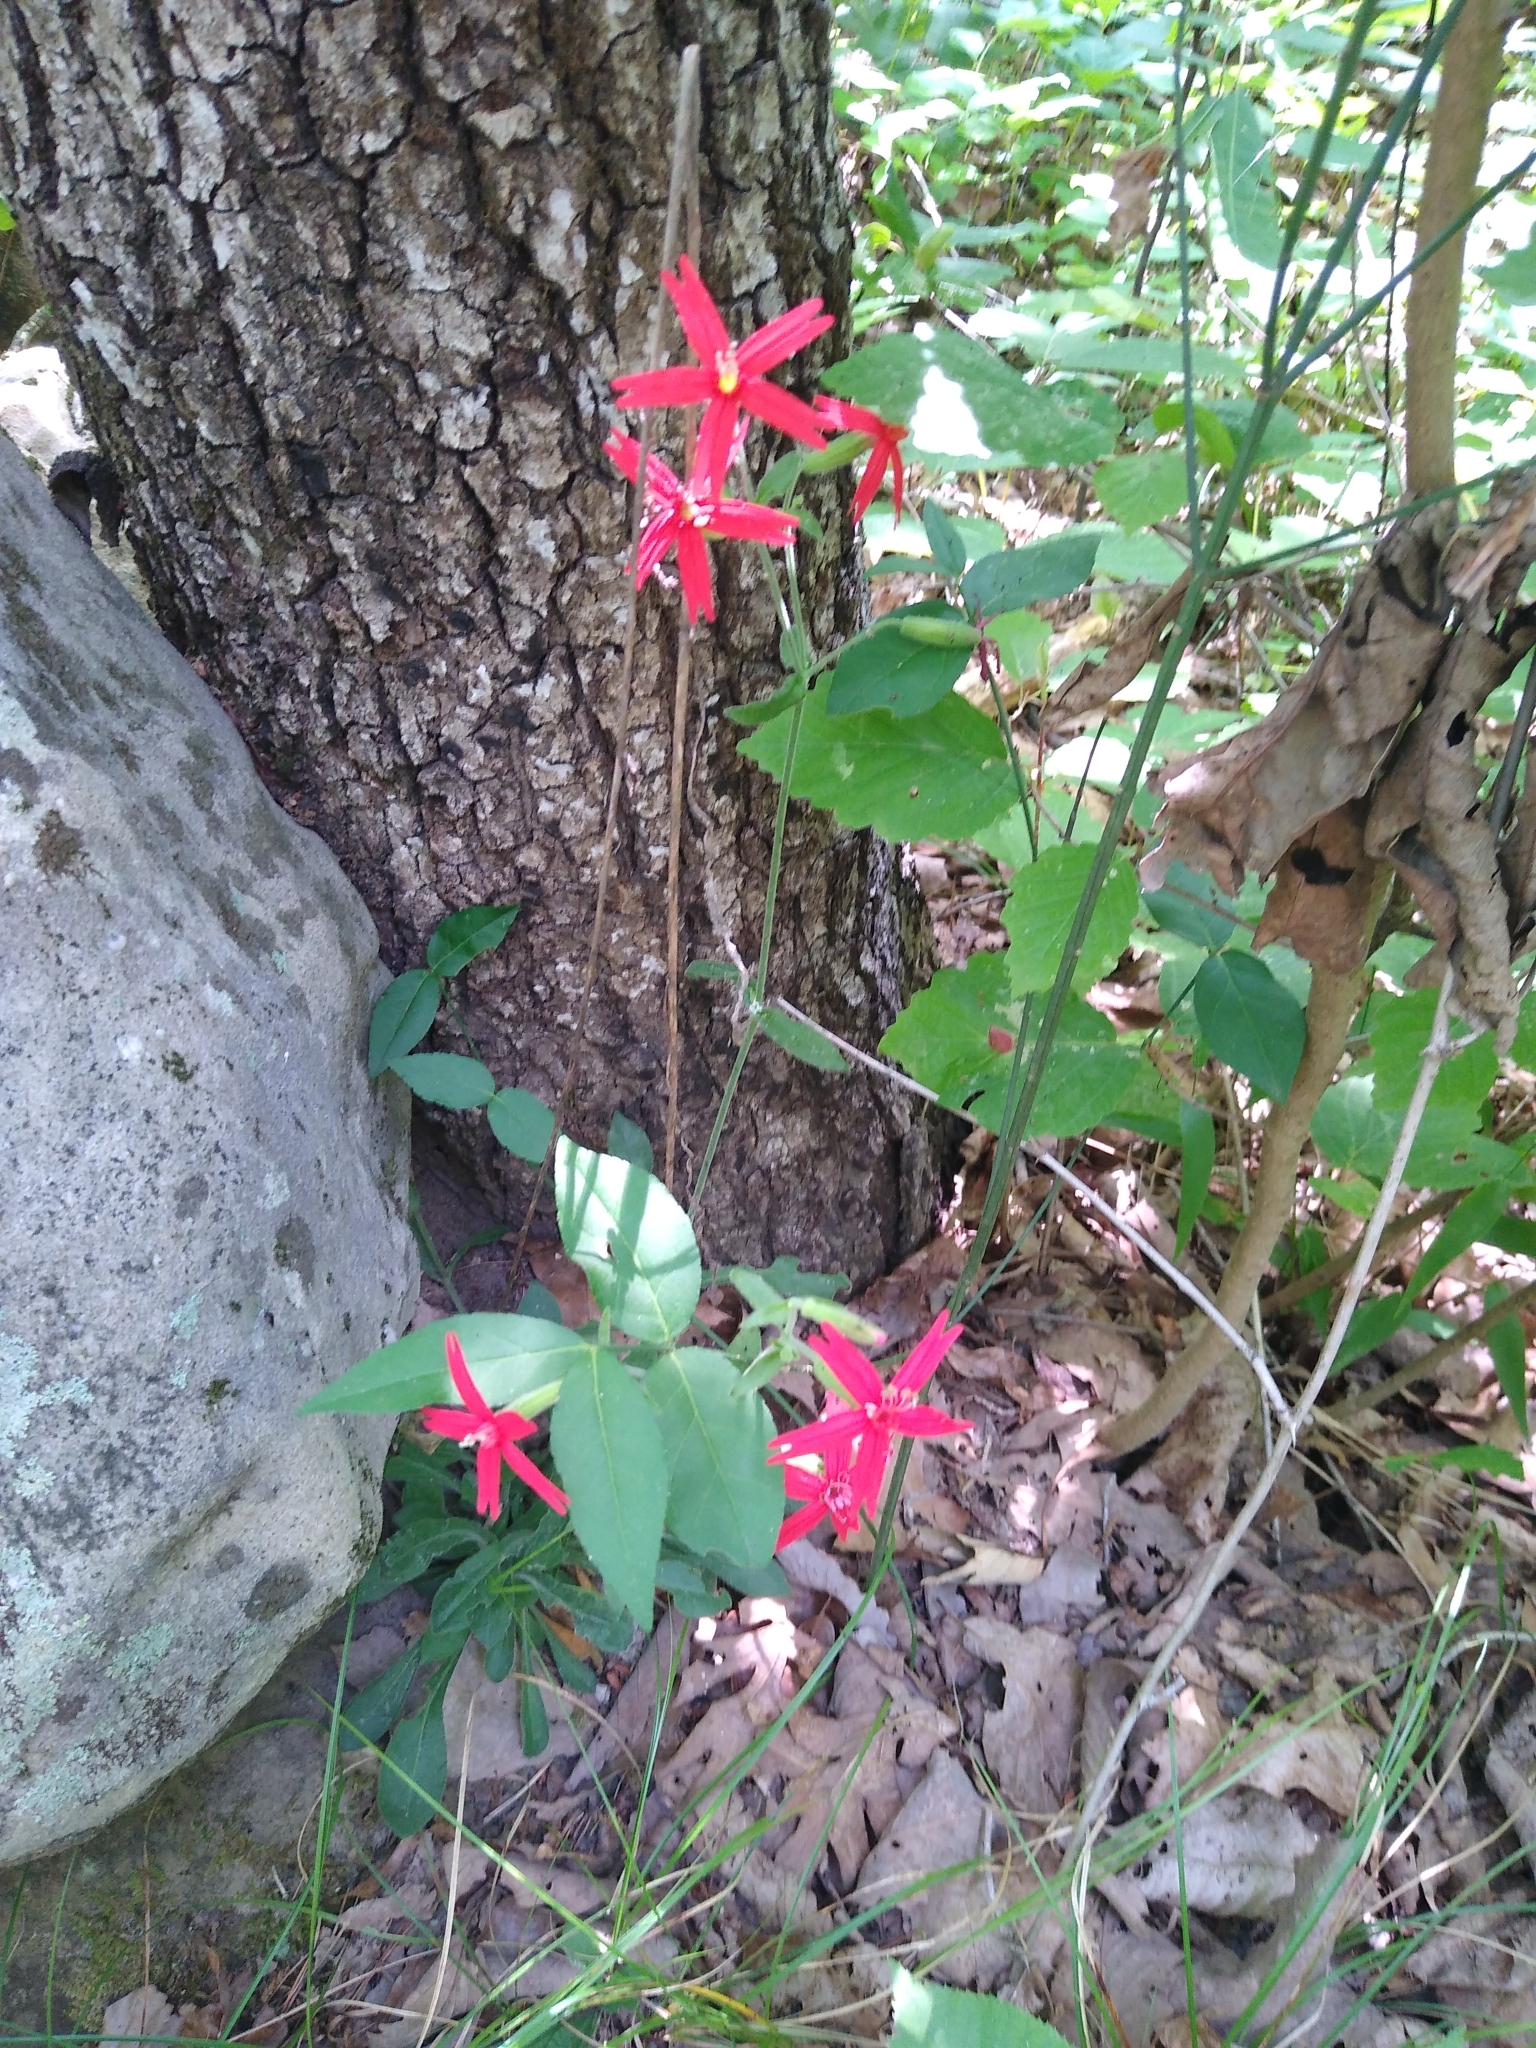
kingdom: Plantae
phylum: Tracheophyta
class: Magnoliopsida
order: Caryophyllales
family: Caryophyllaceae
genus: Silene
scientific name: Silene virginica
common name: Fire-pink
